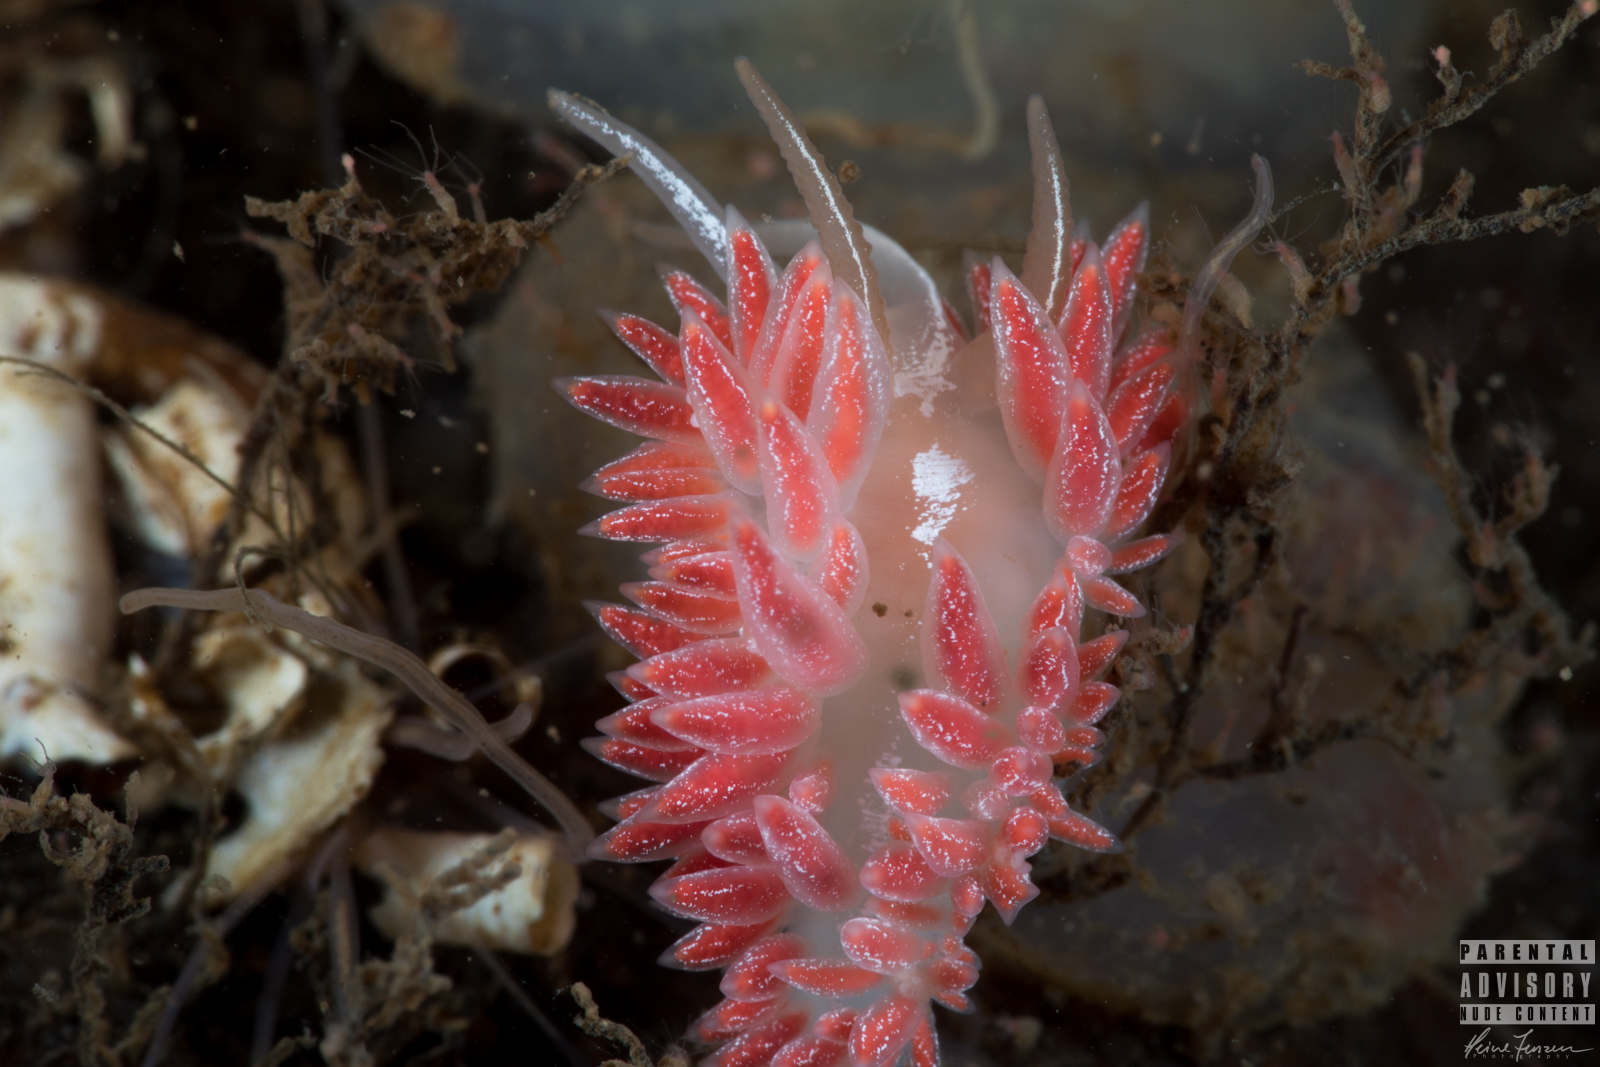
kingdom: Animalia
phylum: Mollusca
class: Gastropoda
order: Nudibranchia
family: Coryphellidae
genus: Coryphella
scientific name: Coryphella chriskaugei
